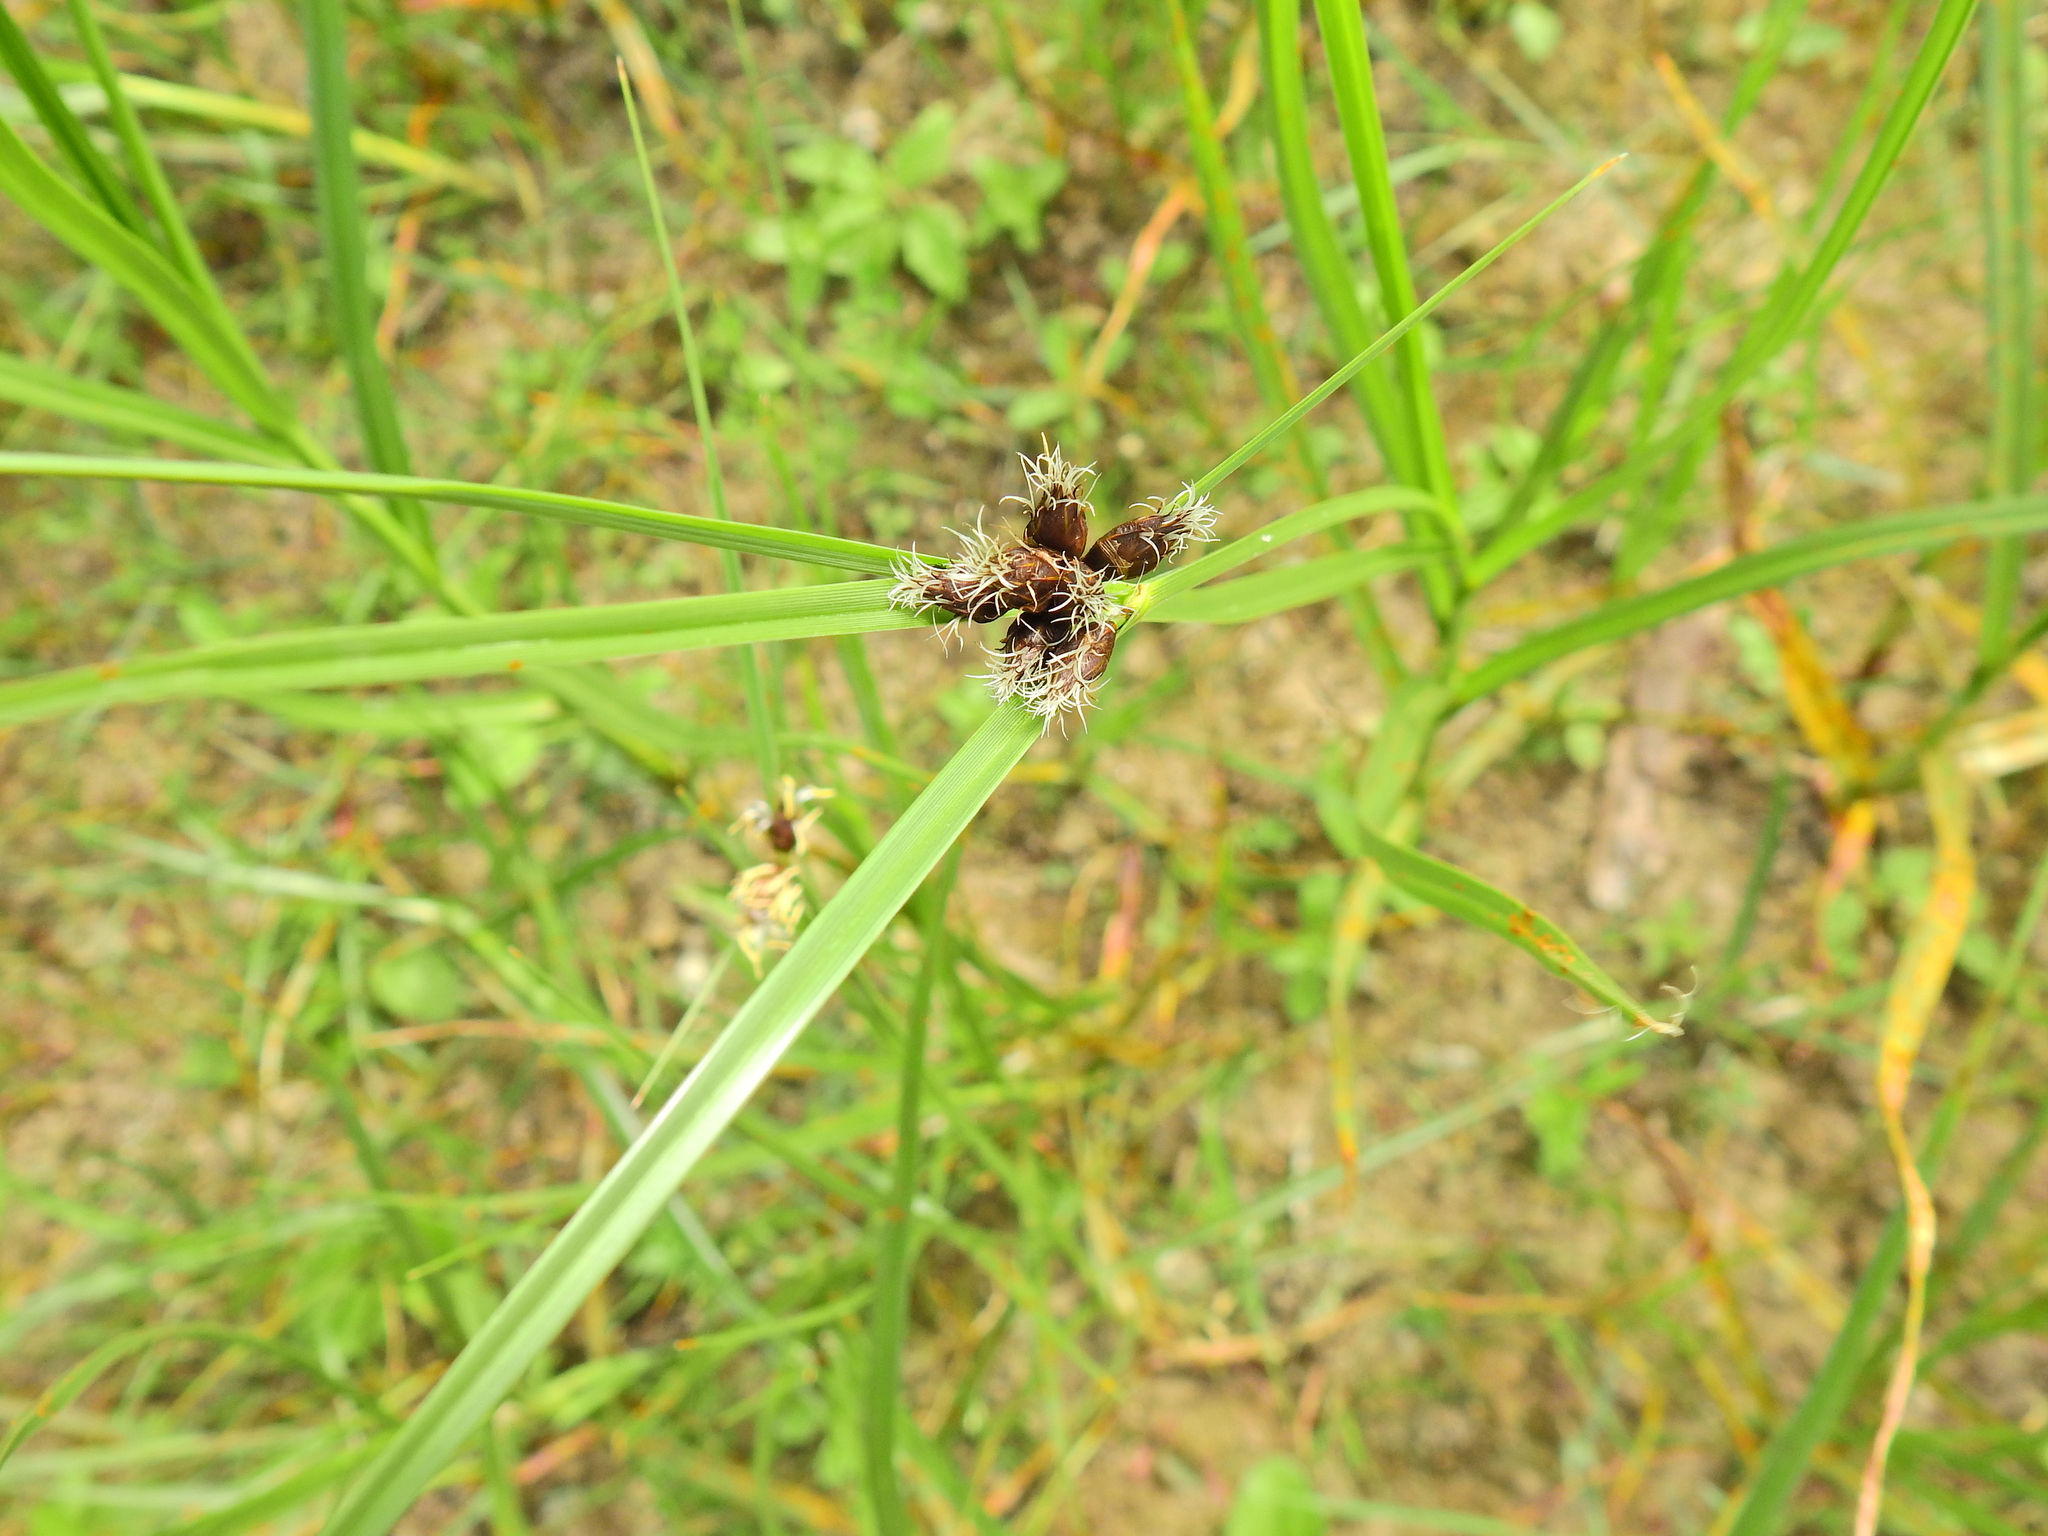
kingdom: Plantae
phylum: Tracheophyta
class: Liliopsida
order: Poales
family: Cyperaceae
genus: Bolboschoenus
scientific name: Bolboschoenus maritimus
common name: Sea club-rush
